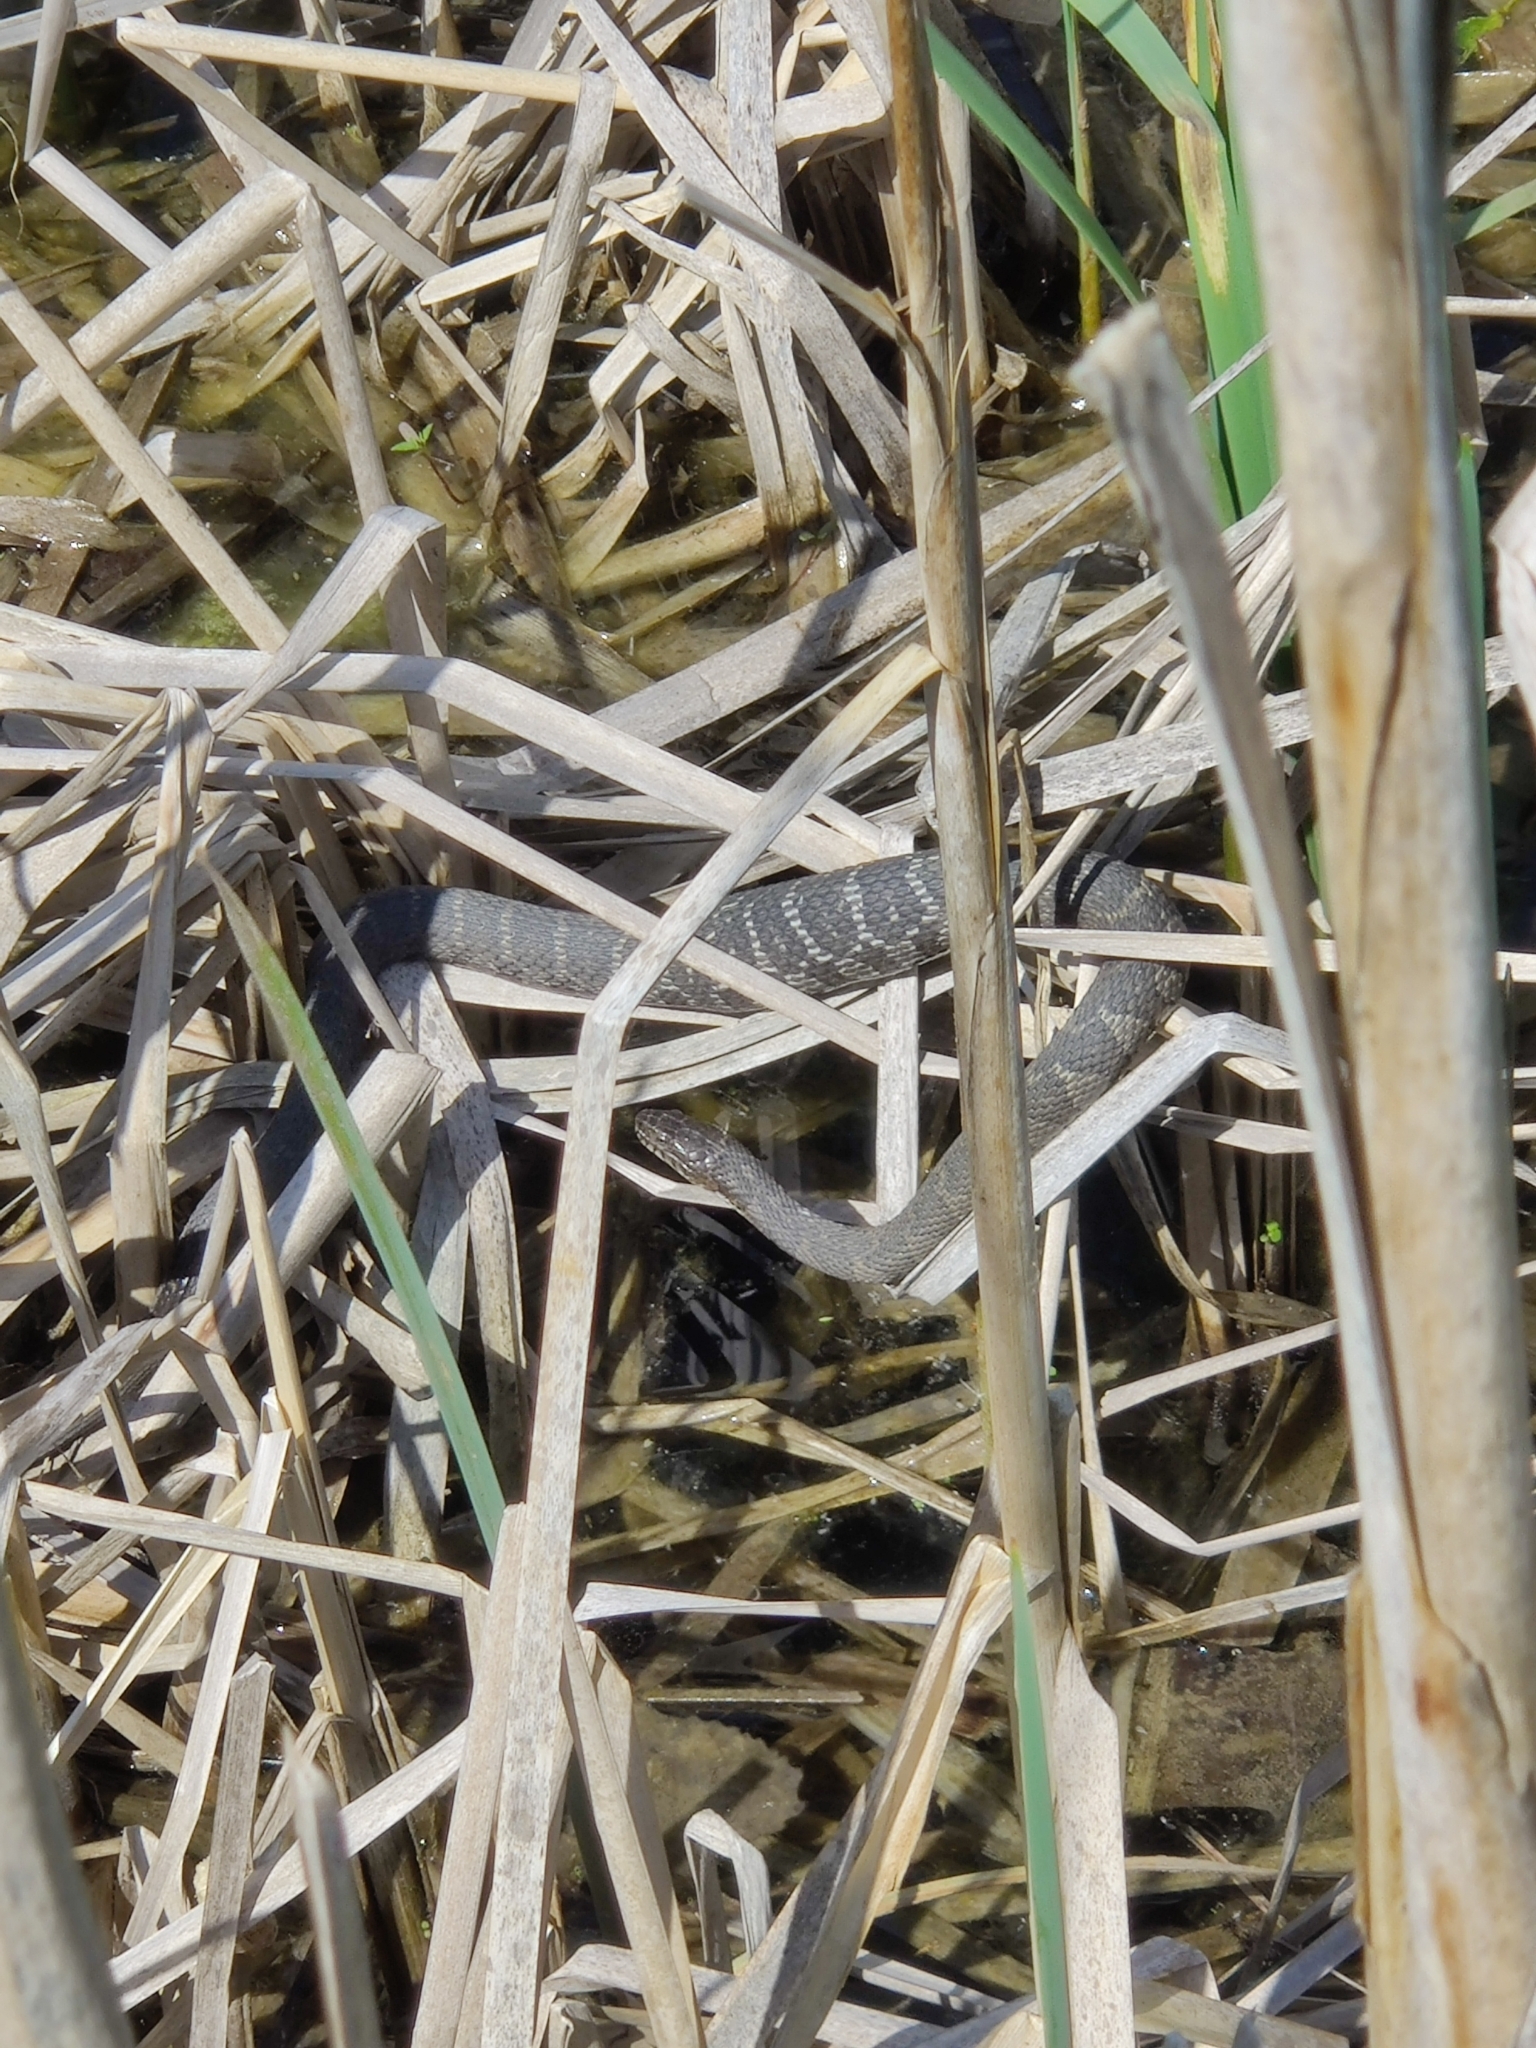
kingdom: Animalia
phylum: Chordata
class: Squamata
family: Colubridae
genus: Nerodia
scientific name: Nerodia sipedon
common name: Northern water snake
